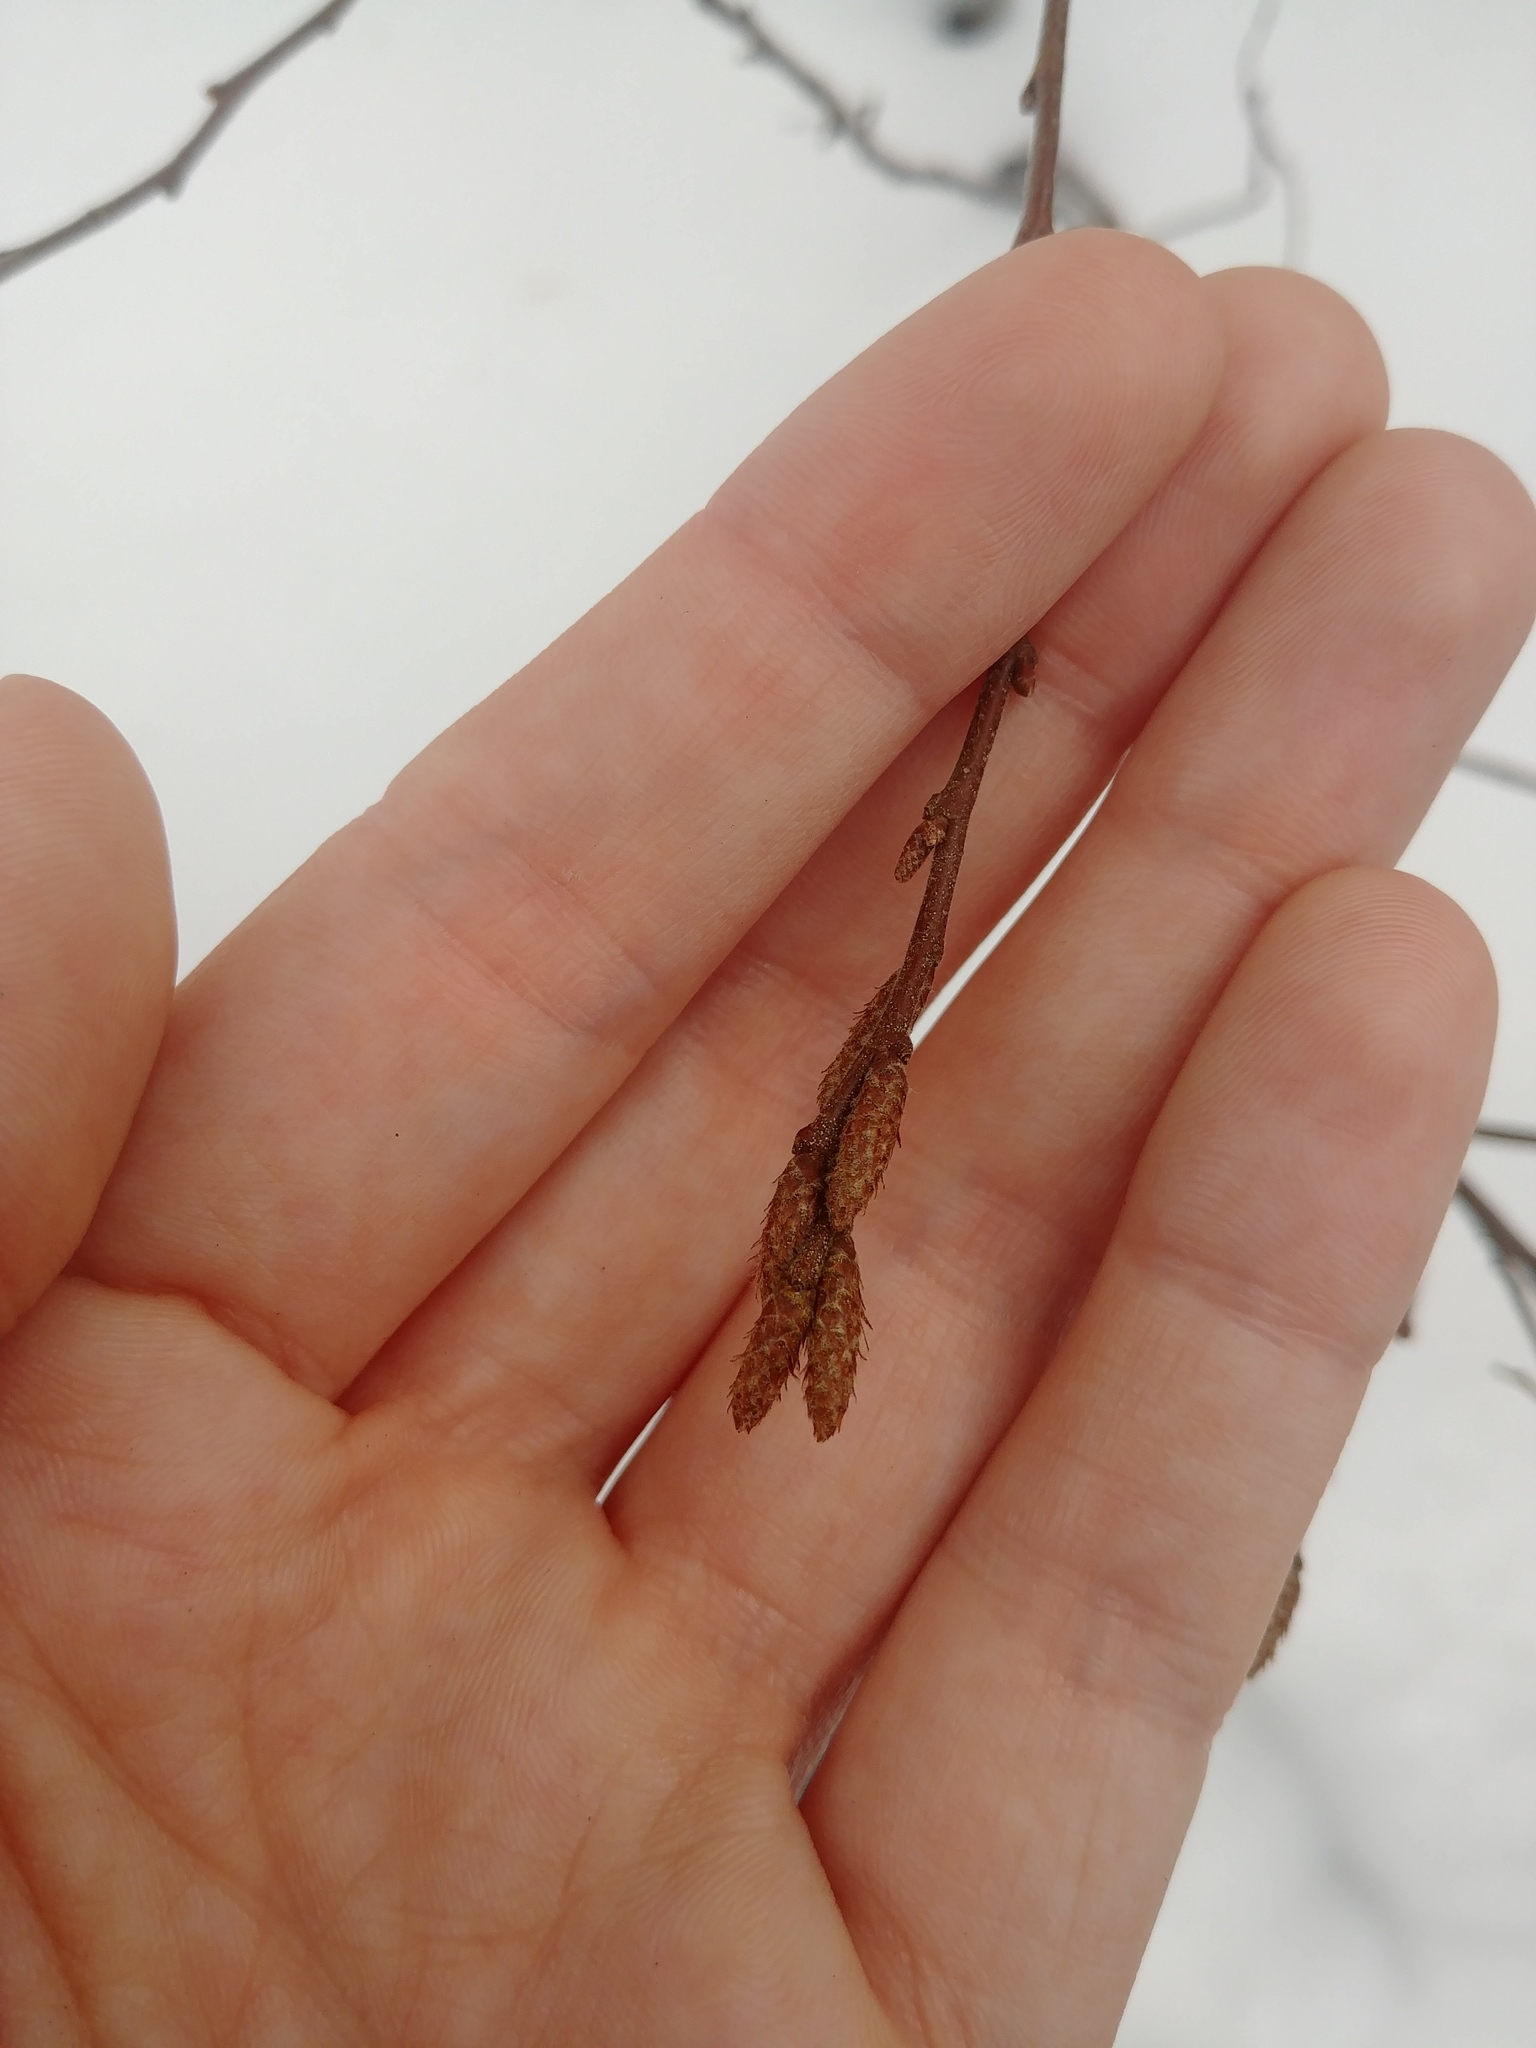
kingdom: Plantae
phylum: Tracheophyta
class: Magnoliopsida
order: Fagales
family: Myricaceae
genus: Comptonia
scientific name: Comptonia peregrina
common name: Sweet-fern
